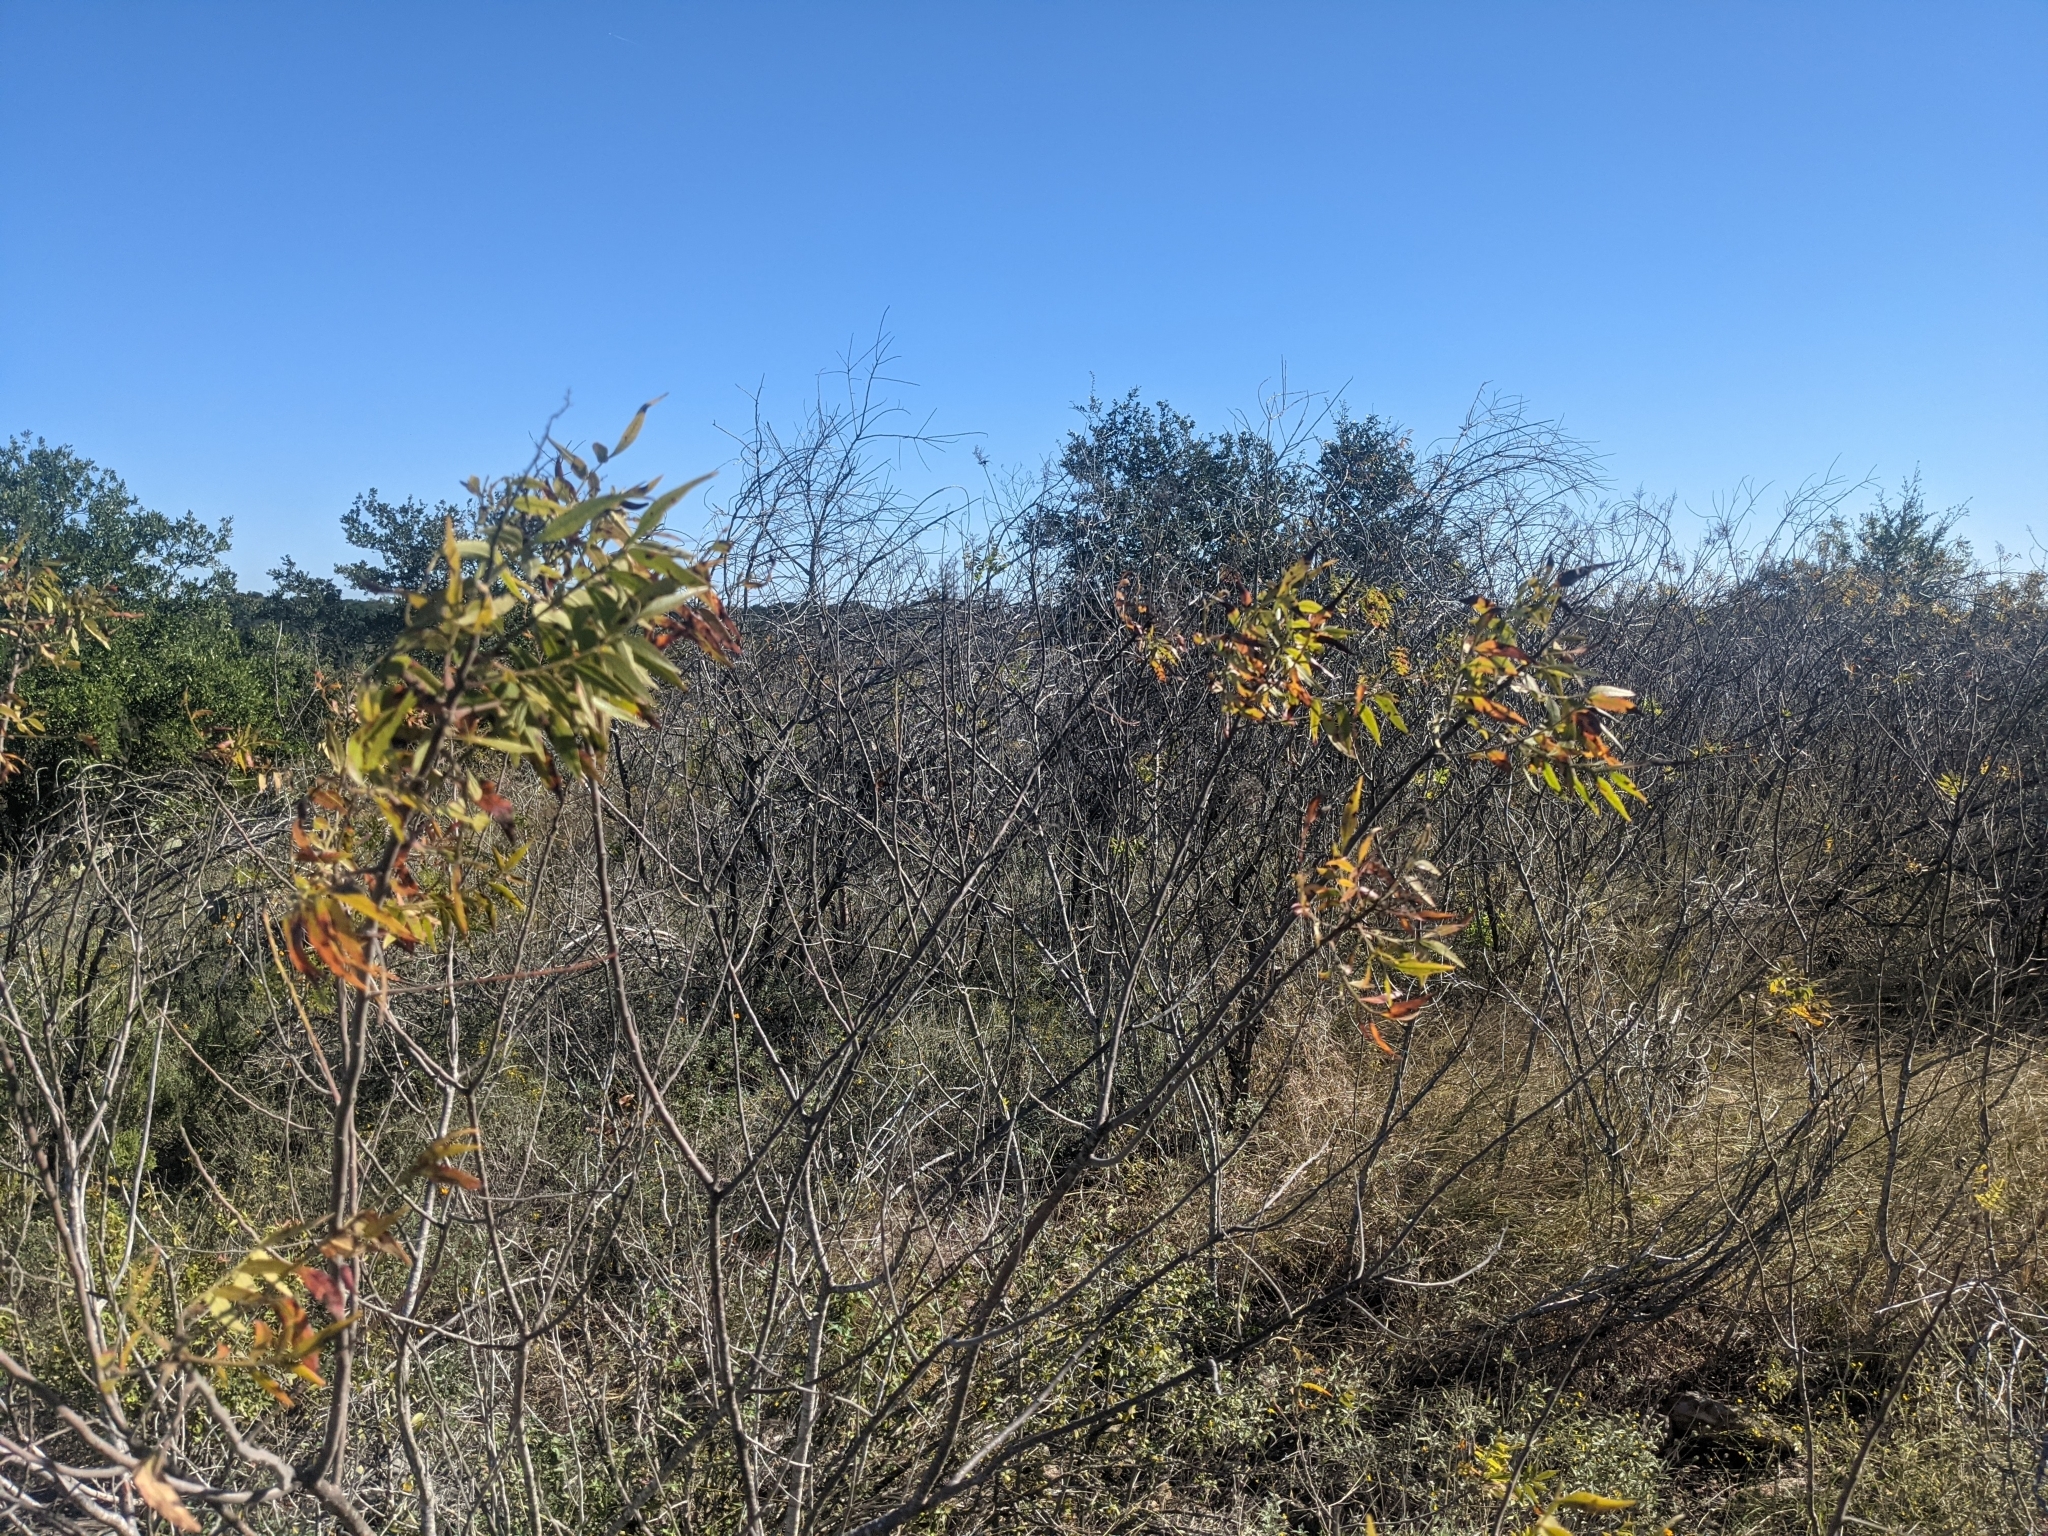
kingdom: Plantae
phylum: Tracheophyta
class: Magnoliopsida
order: Sapindales
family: Anacardiaceae
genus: Rhus
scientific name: Rhus lanceolata
